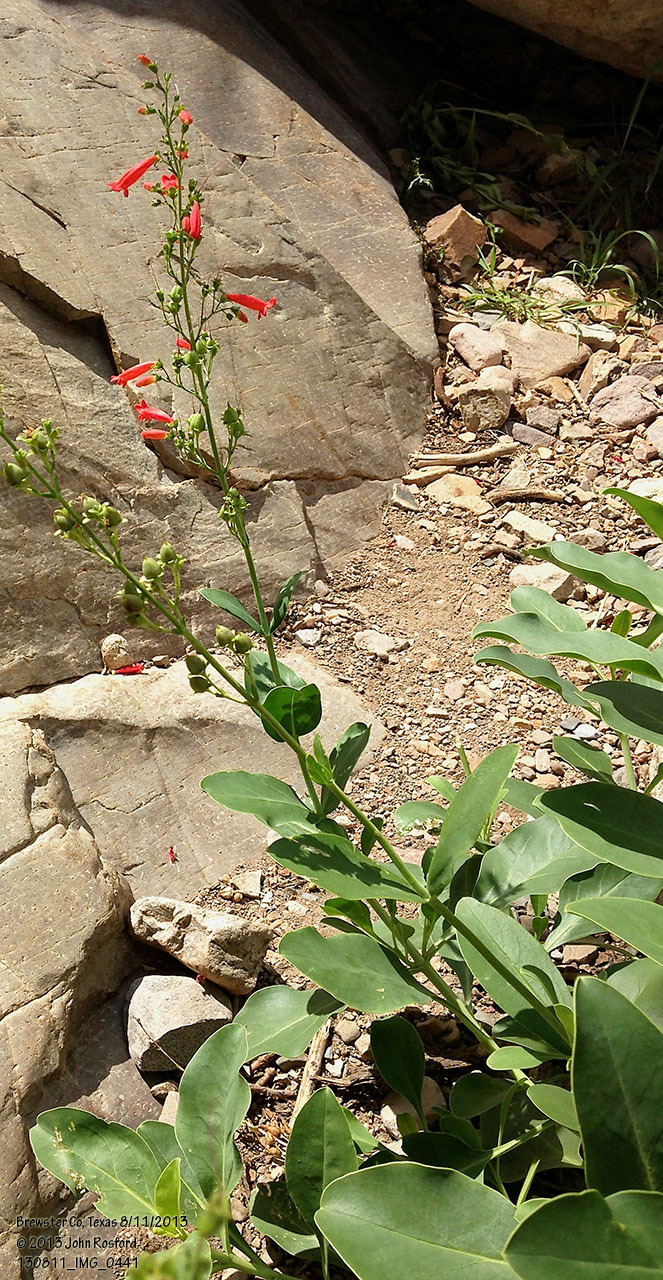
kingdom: Plantae
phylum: Tracheophyta
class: Magnoliopsida
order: Lamiales
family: Plantaginaceae
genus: Penstemon
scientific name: Penstemon havardii
